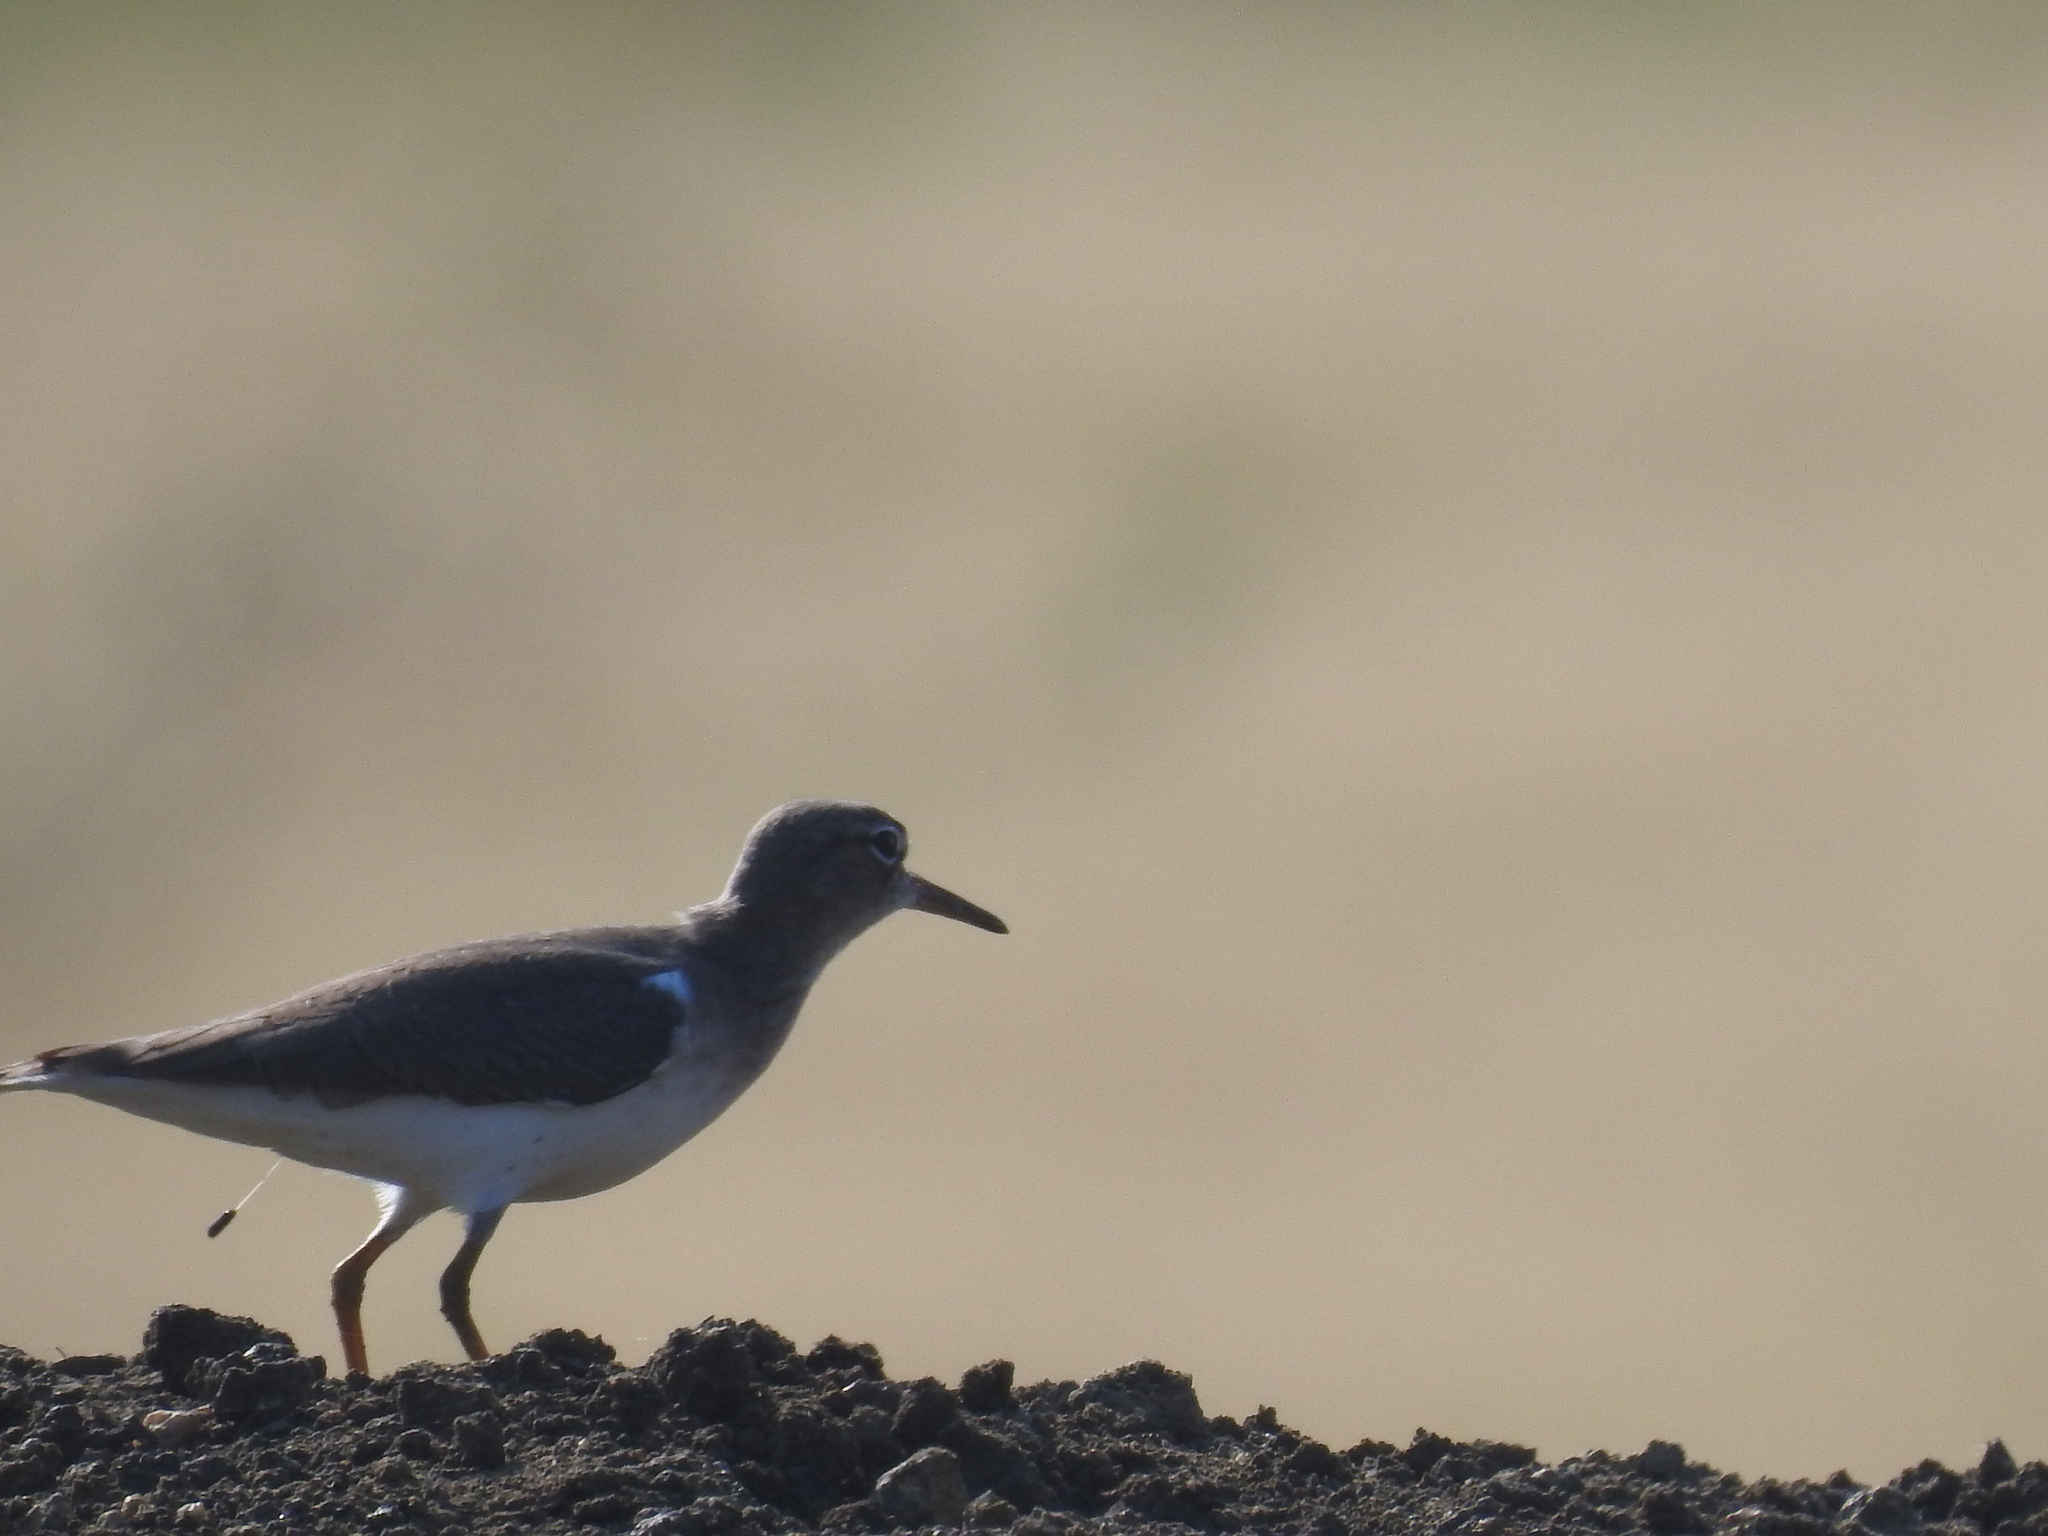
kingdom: Animalia
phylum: Chordata
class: Aves
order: Charadriiformes
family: Scolopacidae
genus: Actitis
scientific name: Actitis macularius
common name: Spotted sandpiper
